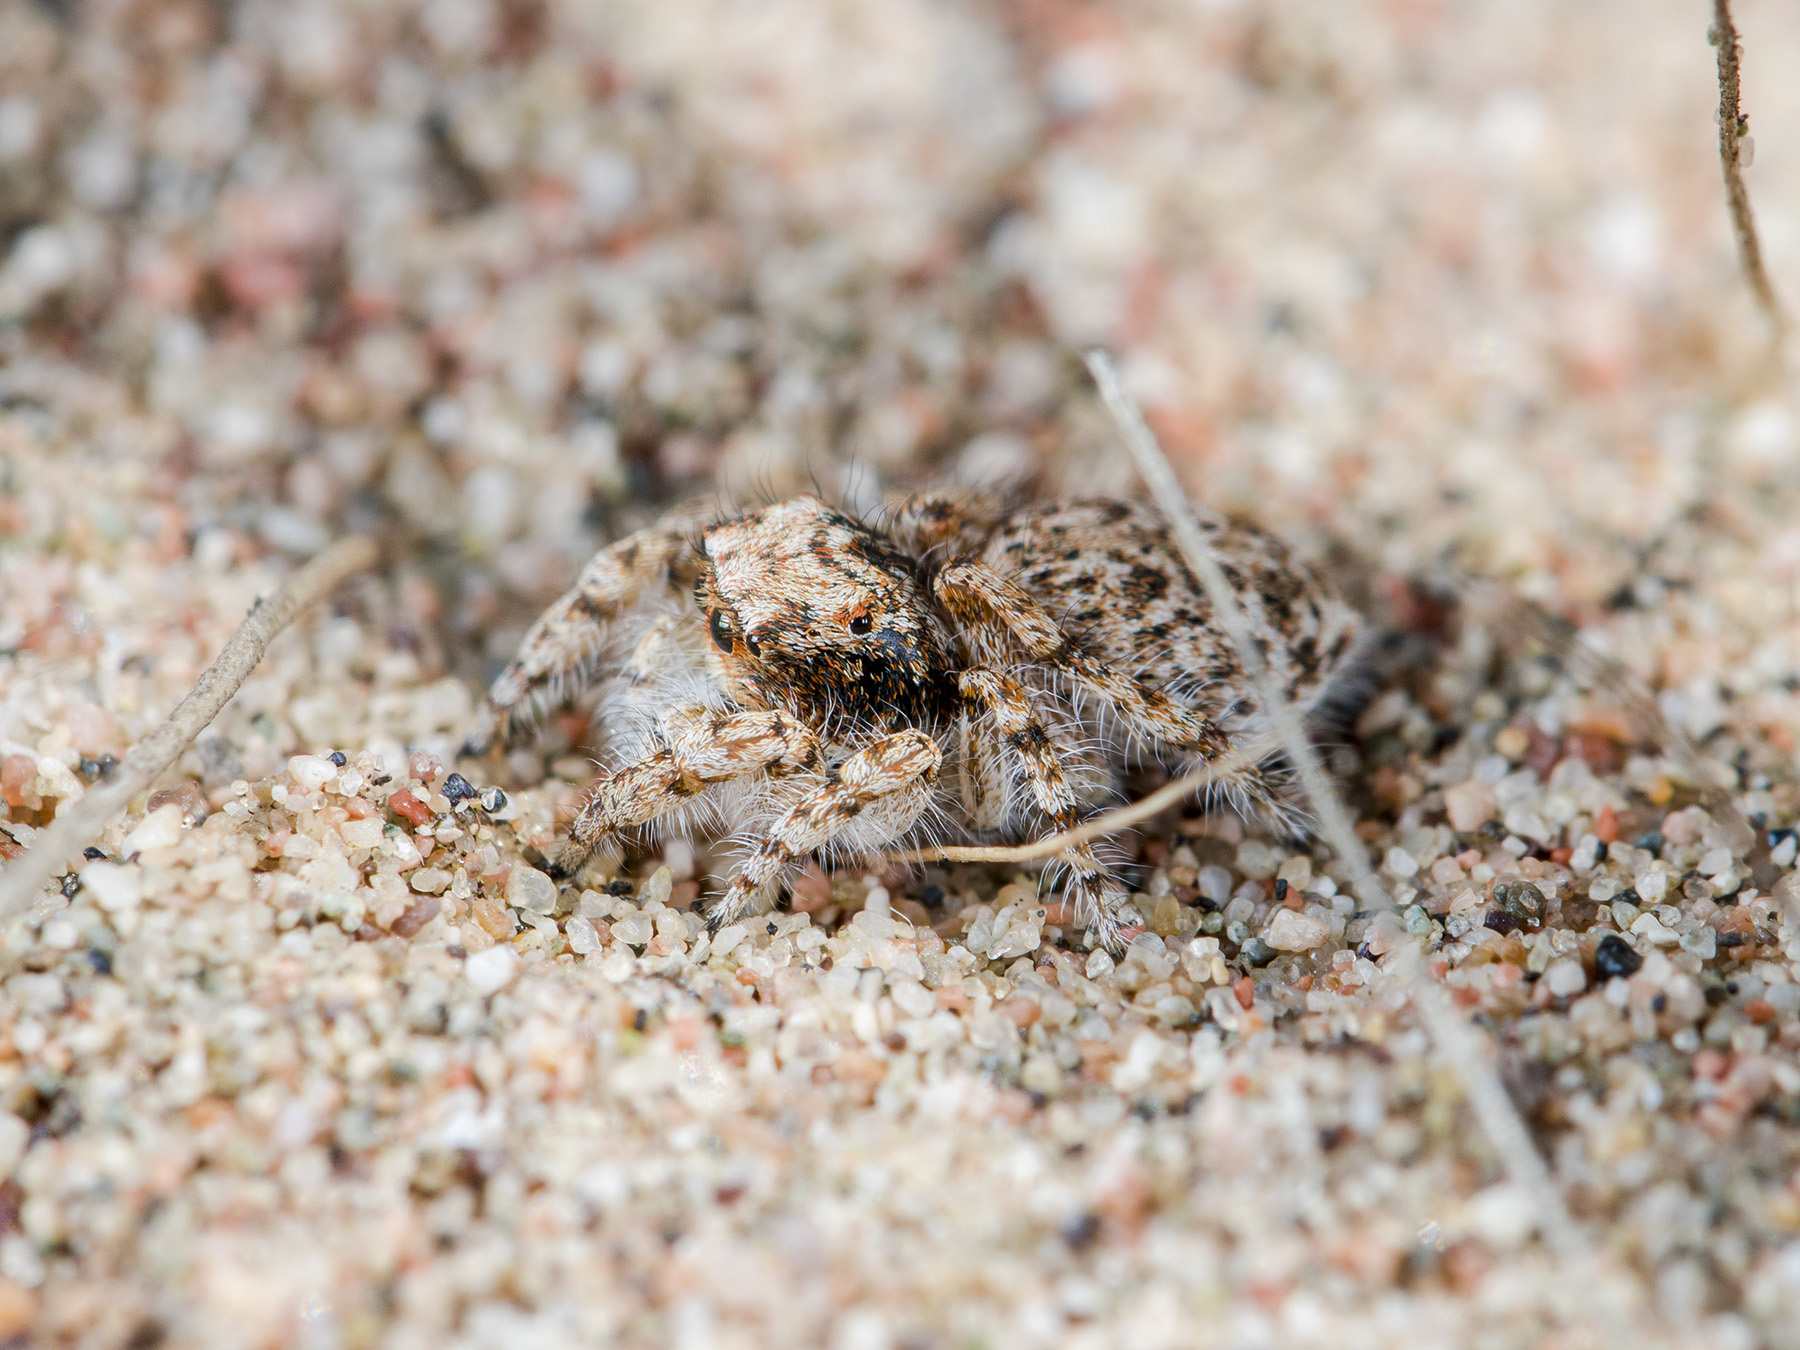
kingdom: Animalia
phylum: Arthropoda
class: Arachnida
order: Araneae
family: Salticidae
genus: Yllenus
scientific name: Yllenus uiguricus
